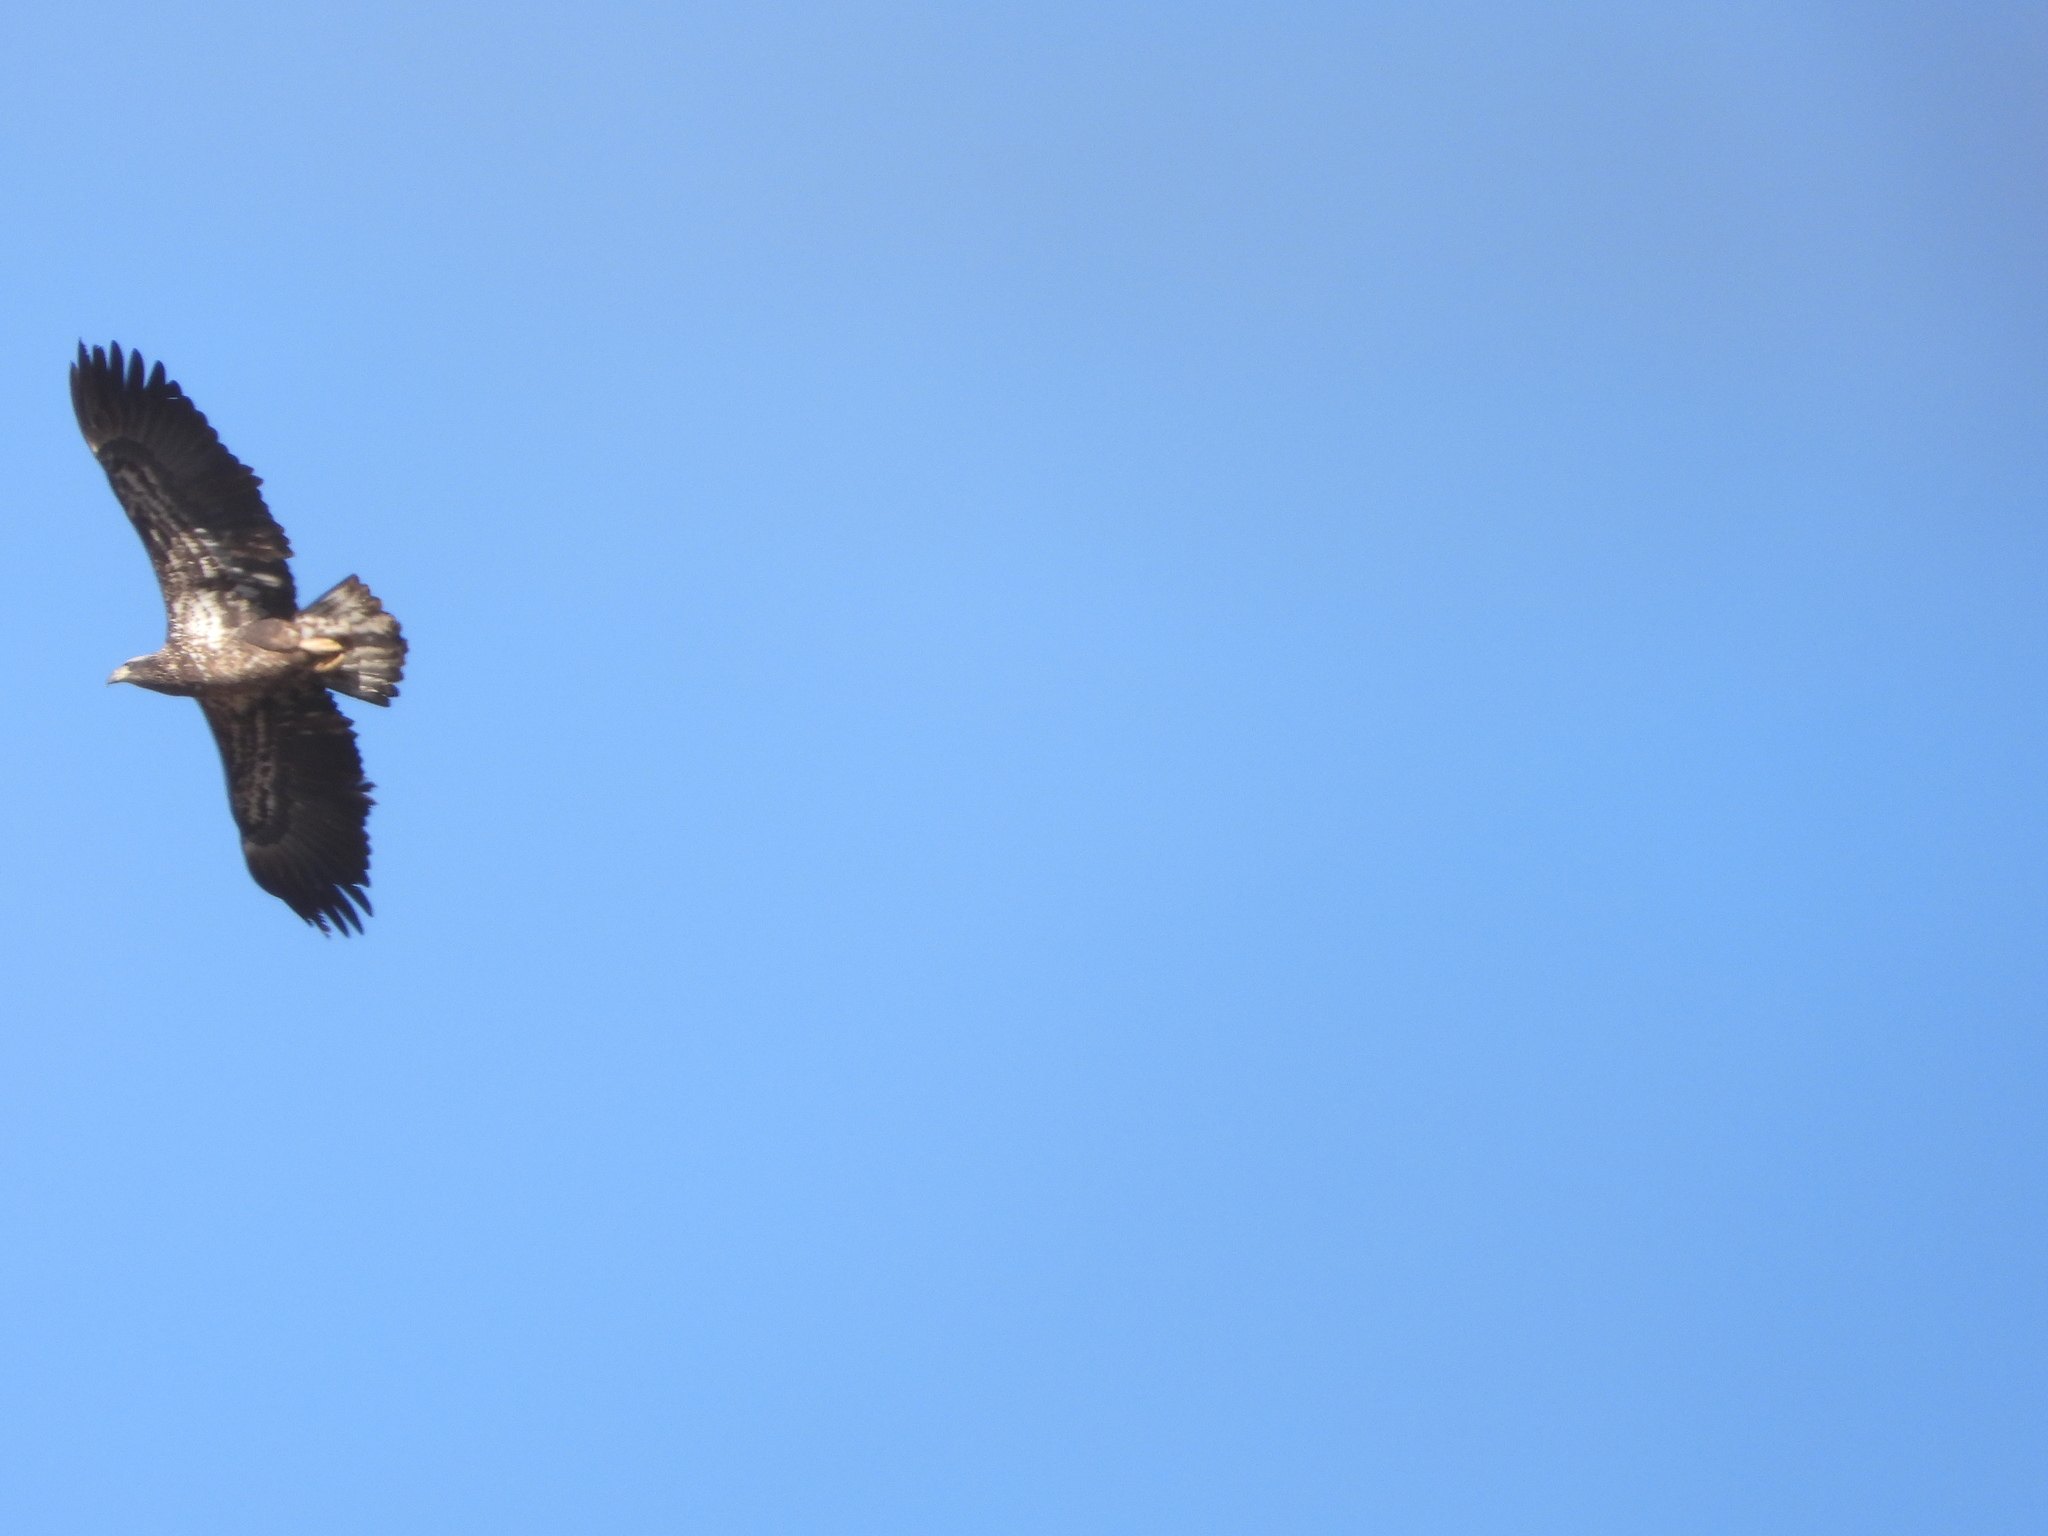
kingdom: Animalia
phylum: Chordata
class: Aves
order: Accipitriformes
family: Accipitridae
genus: Haliaeetus
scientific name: Haliaeetus leucocephalus
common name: Bald eagle
